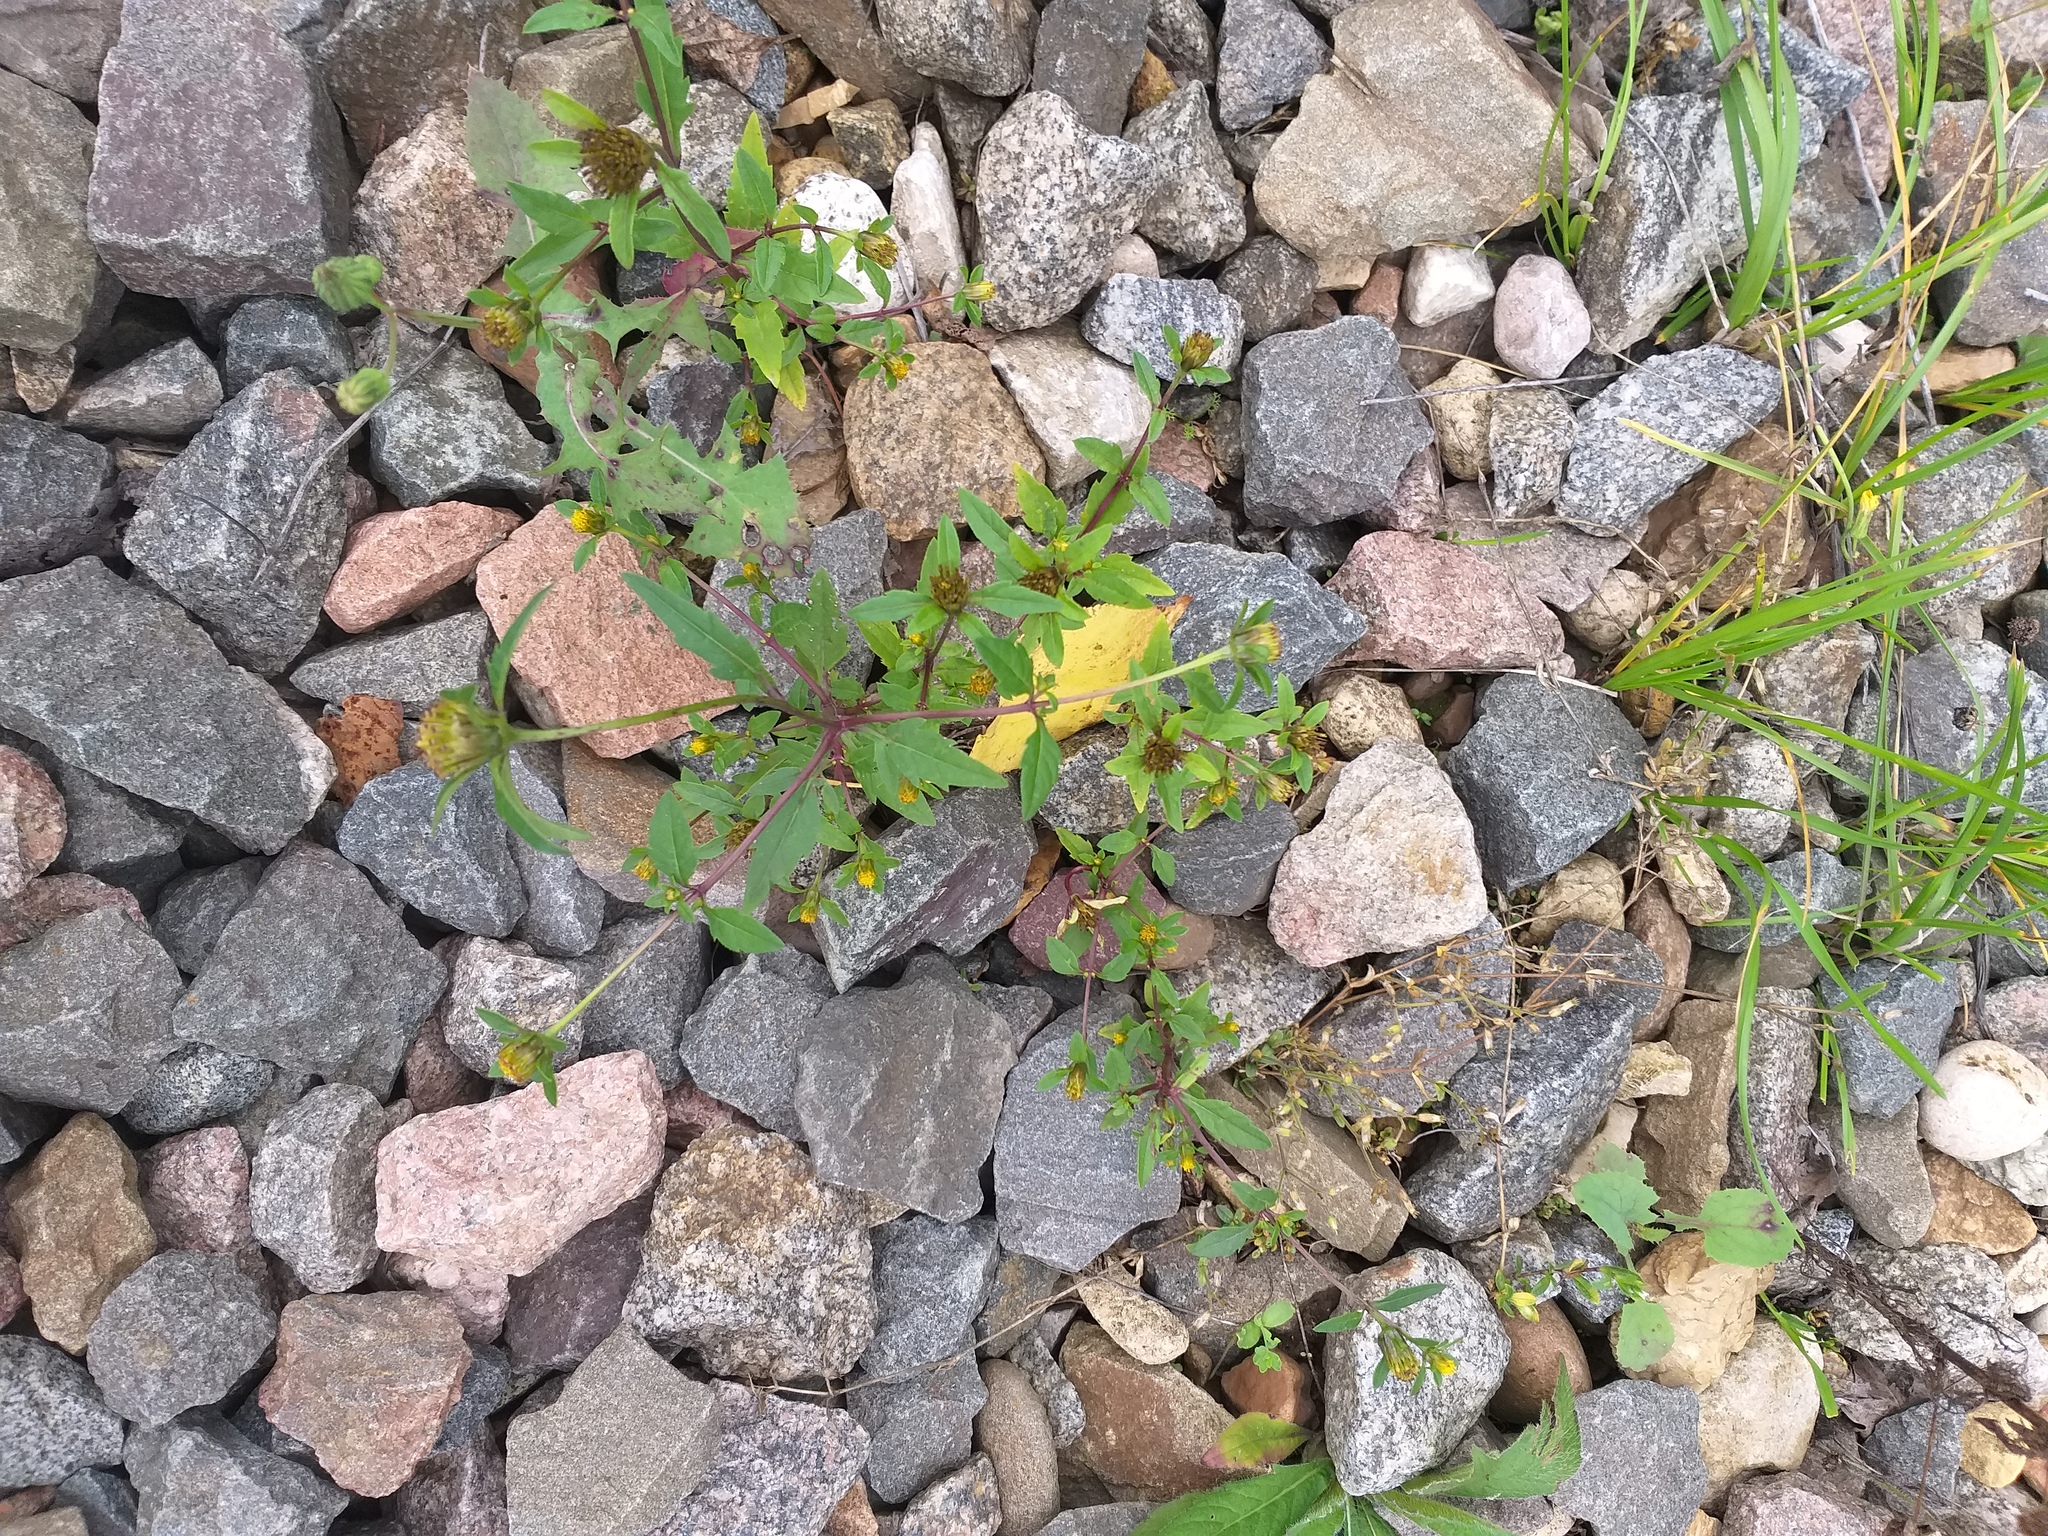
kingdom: Plantae
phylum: Tracheophyta
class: Magnoliopsida
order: Asterales
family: Asteraceae
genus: Bidens
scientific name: Bidens tripartita
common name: Trifid bur-marigold
